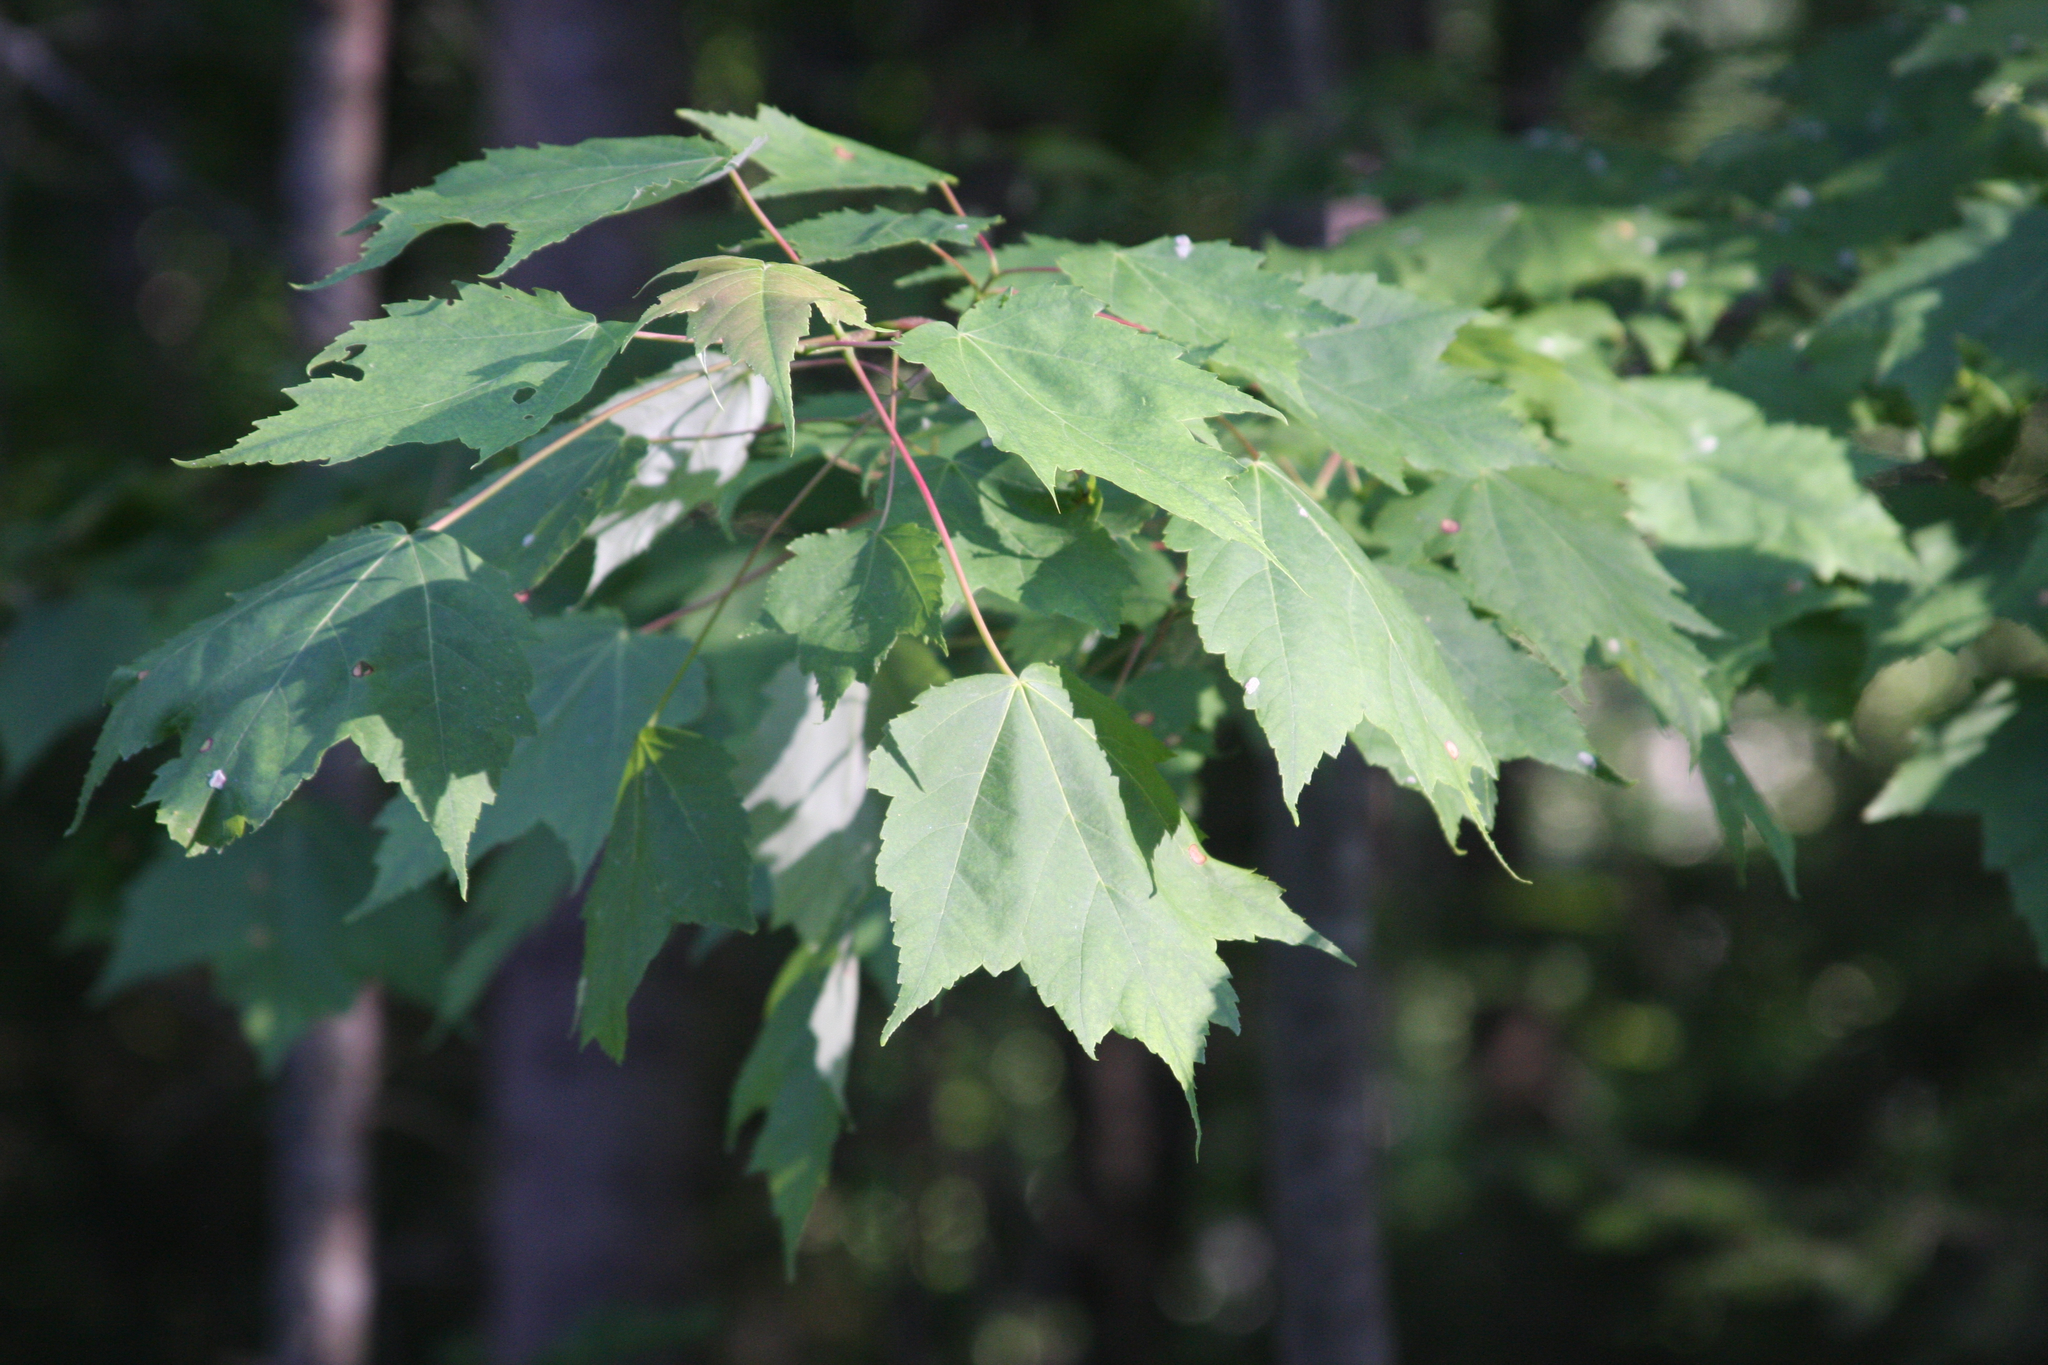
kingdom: Plantae
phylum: Tracheophyta
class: Magnoliopsida
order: Sapindales
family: Sapindaceae
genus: Acer
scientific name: Acer rubrum
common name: Red maple
